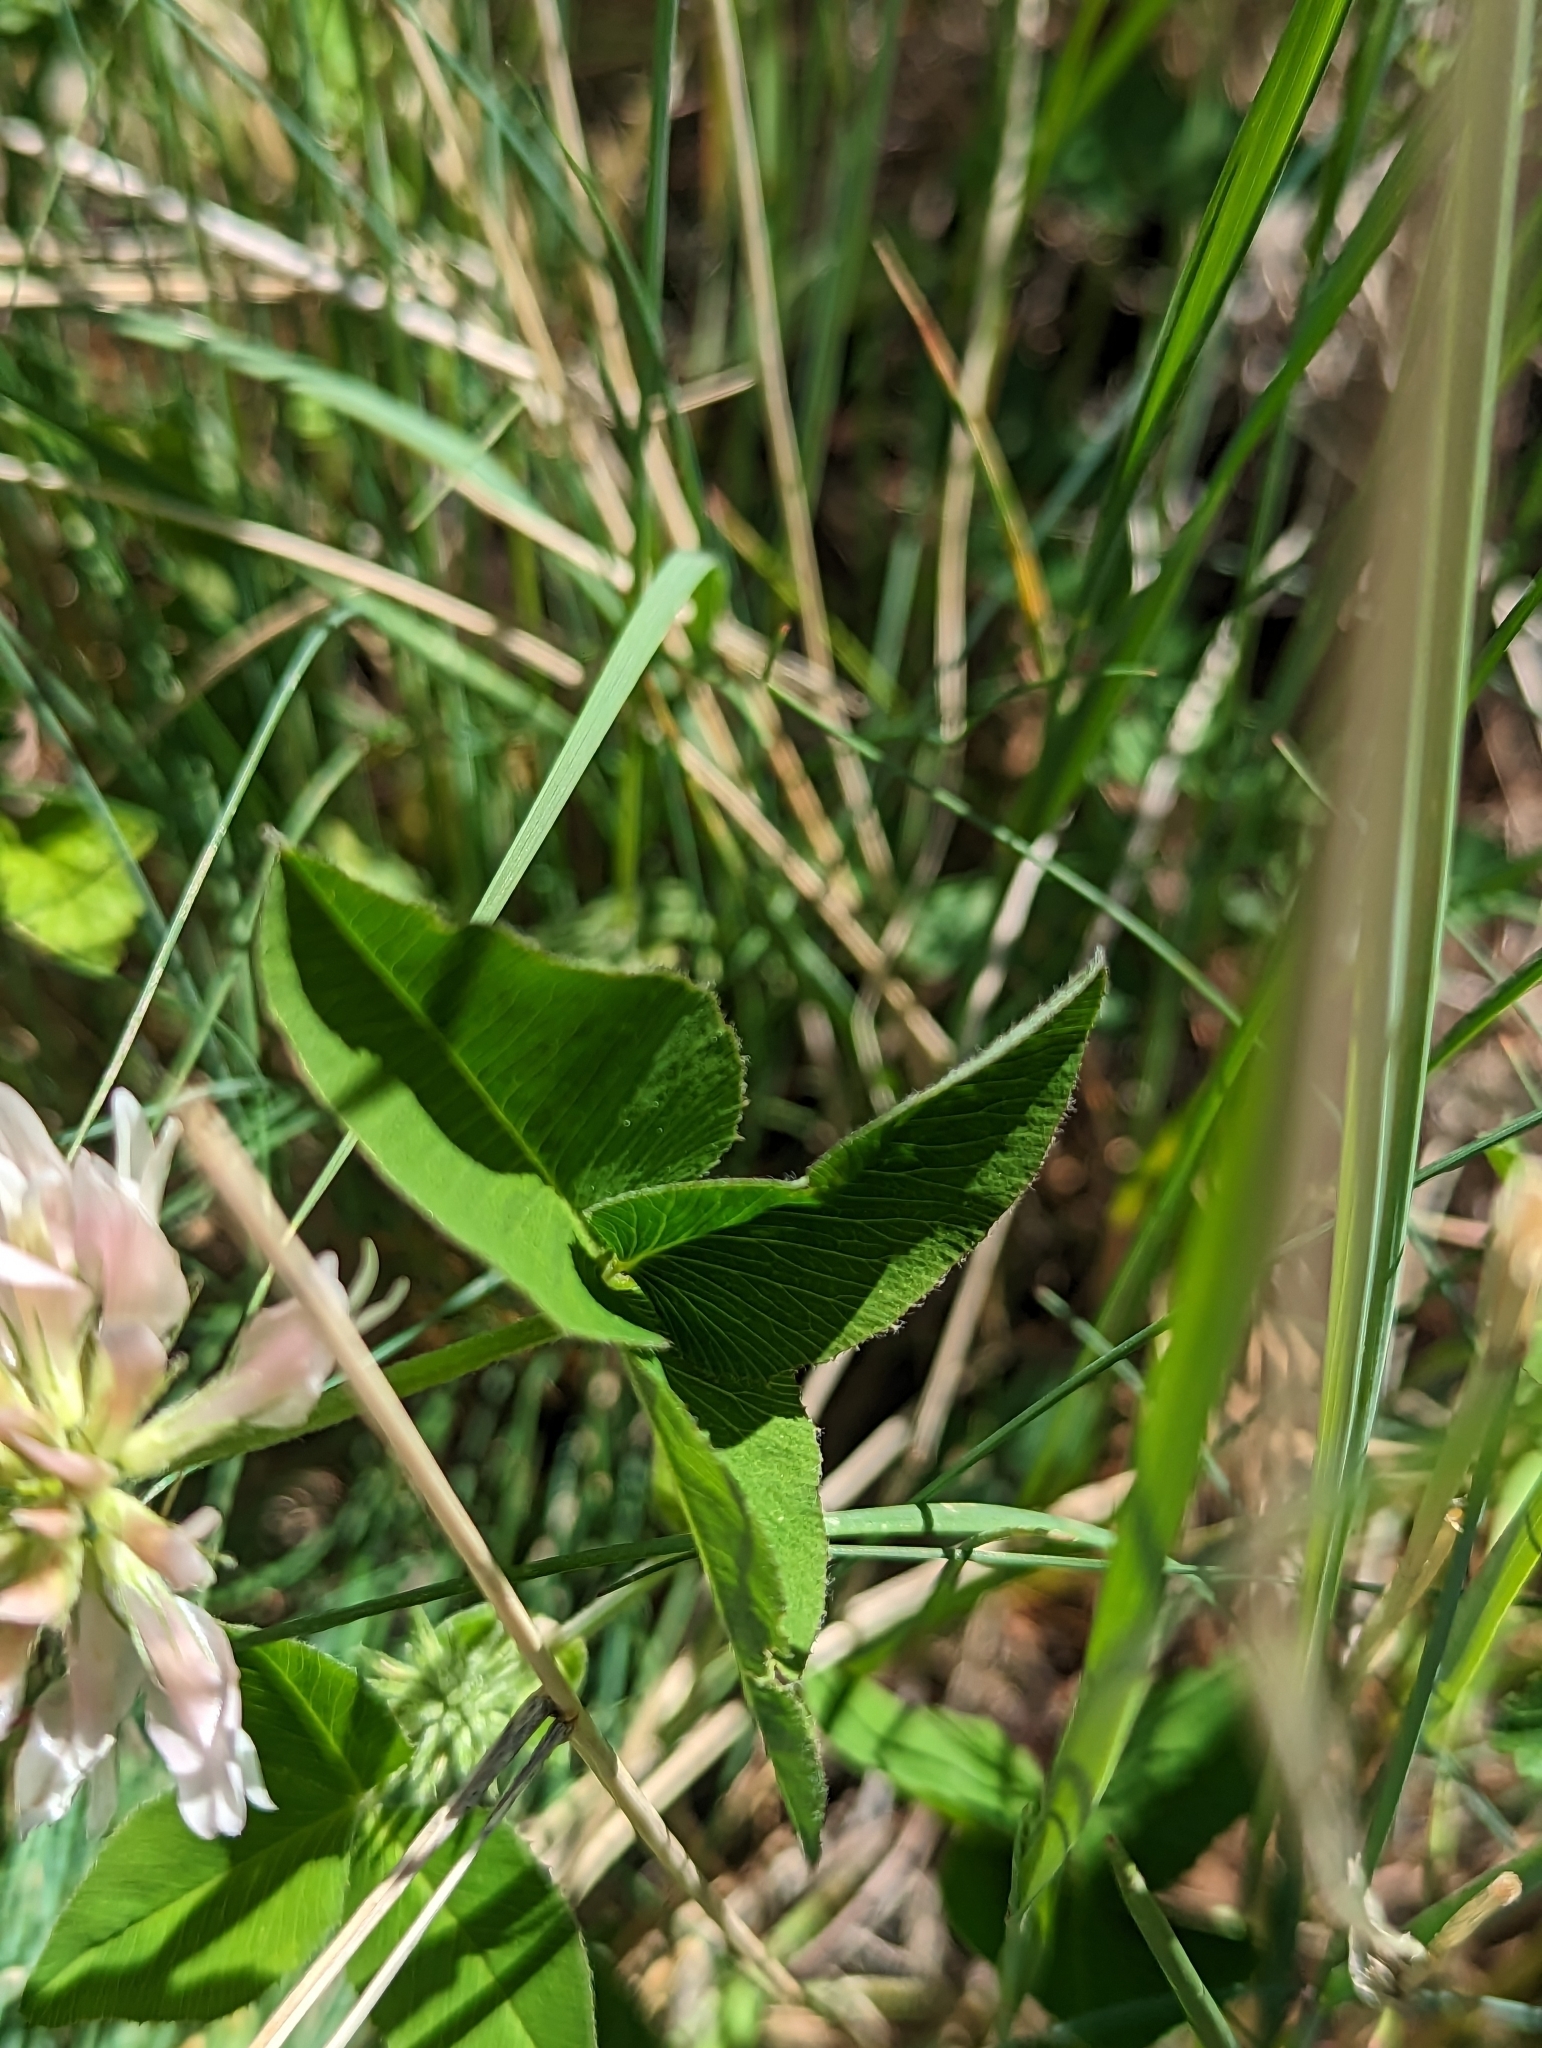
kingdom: Plantae
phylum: Tracheophyta
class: Magnoliopsida
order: Fabales
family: Fabaceae
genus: Trifolium
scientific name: Trifolium latifolium
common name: Broadleaf clover
